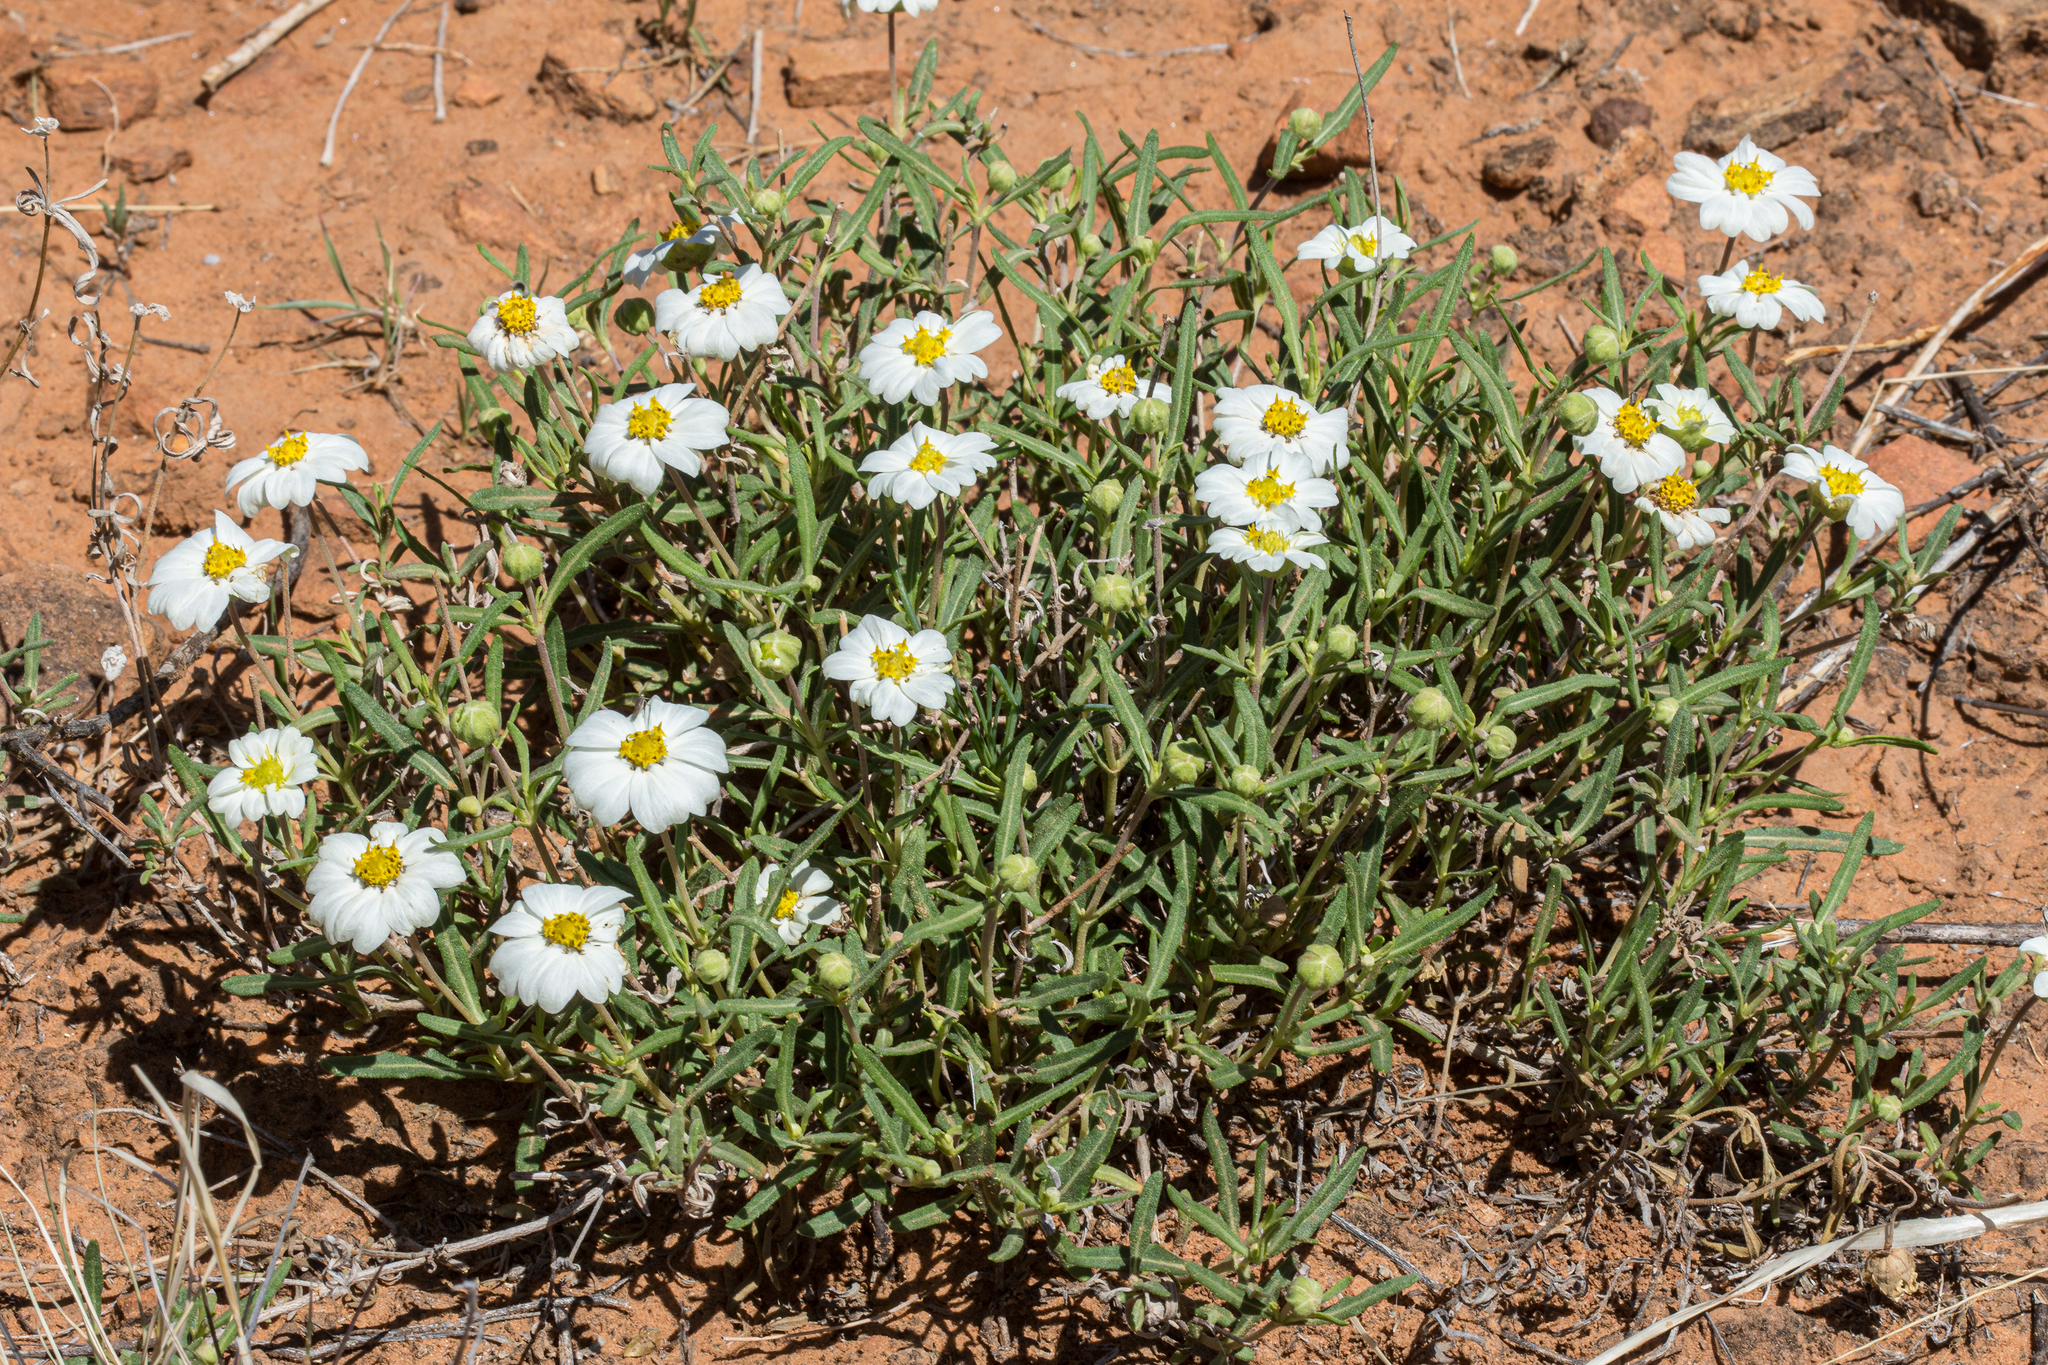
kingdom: Plantae
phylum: Tracheophyta
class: Magnoliopsida
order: Asterales
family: Asteraceae
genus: Melampodium
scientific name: Melampodium leucanthum
